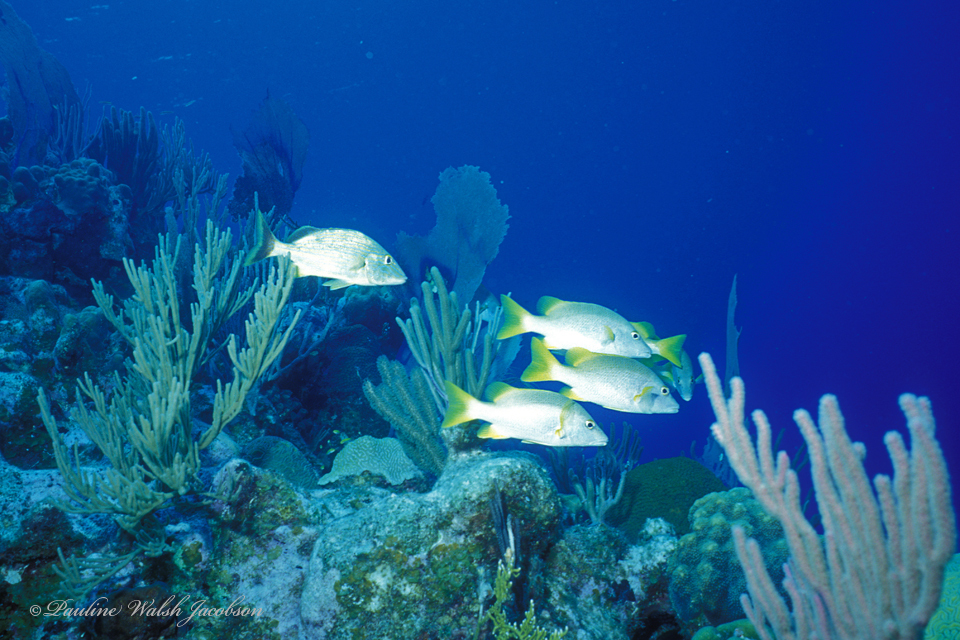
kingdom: Animalia
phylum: Chordata
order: Perciformes
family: Lutjanidae
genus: Lutjanus
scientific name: Lutjanus apodus
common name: Schoolmaster
